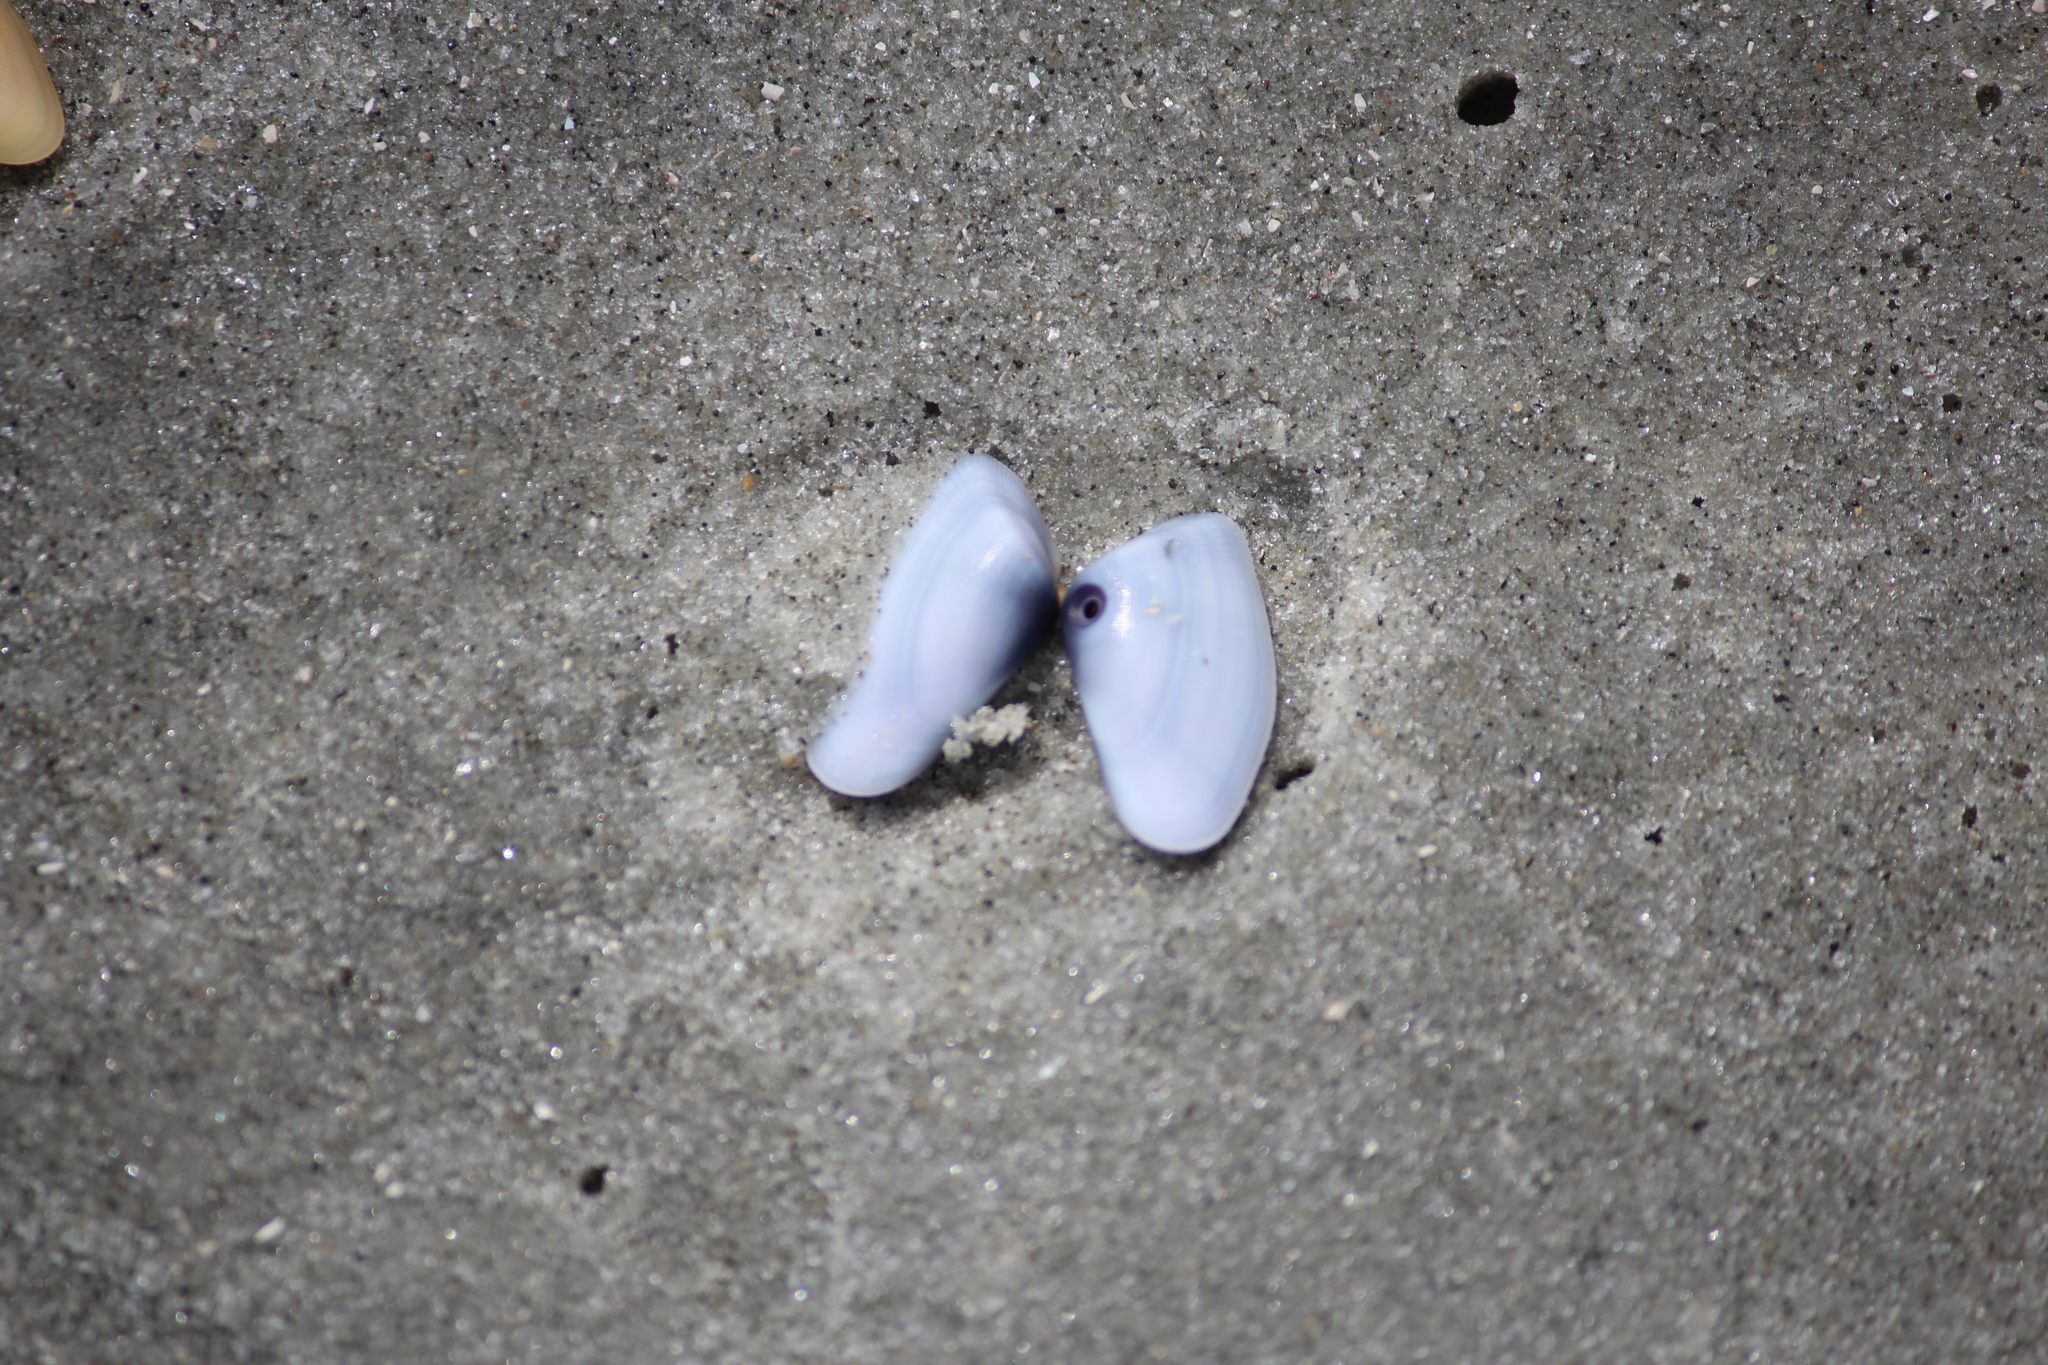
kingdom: Animalia
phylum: Mollusca
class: Bivalvia
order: Cardiida
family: Donacidae
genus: Donax
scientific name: Donax variabilis
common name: Butterfly shell
